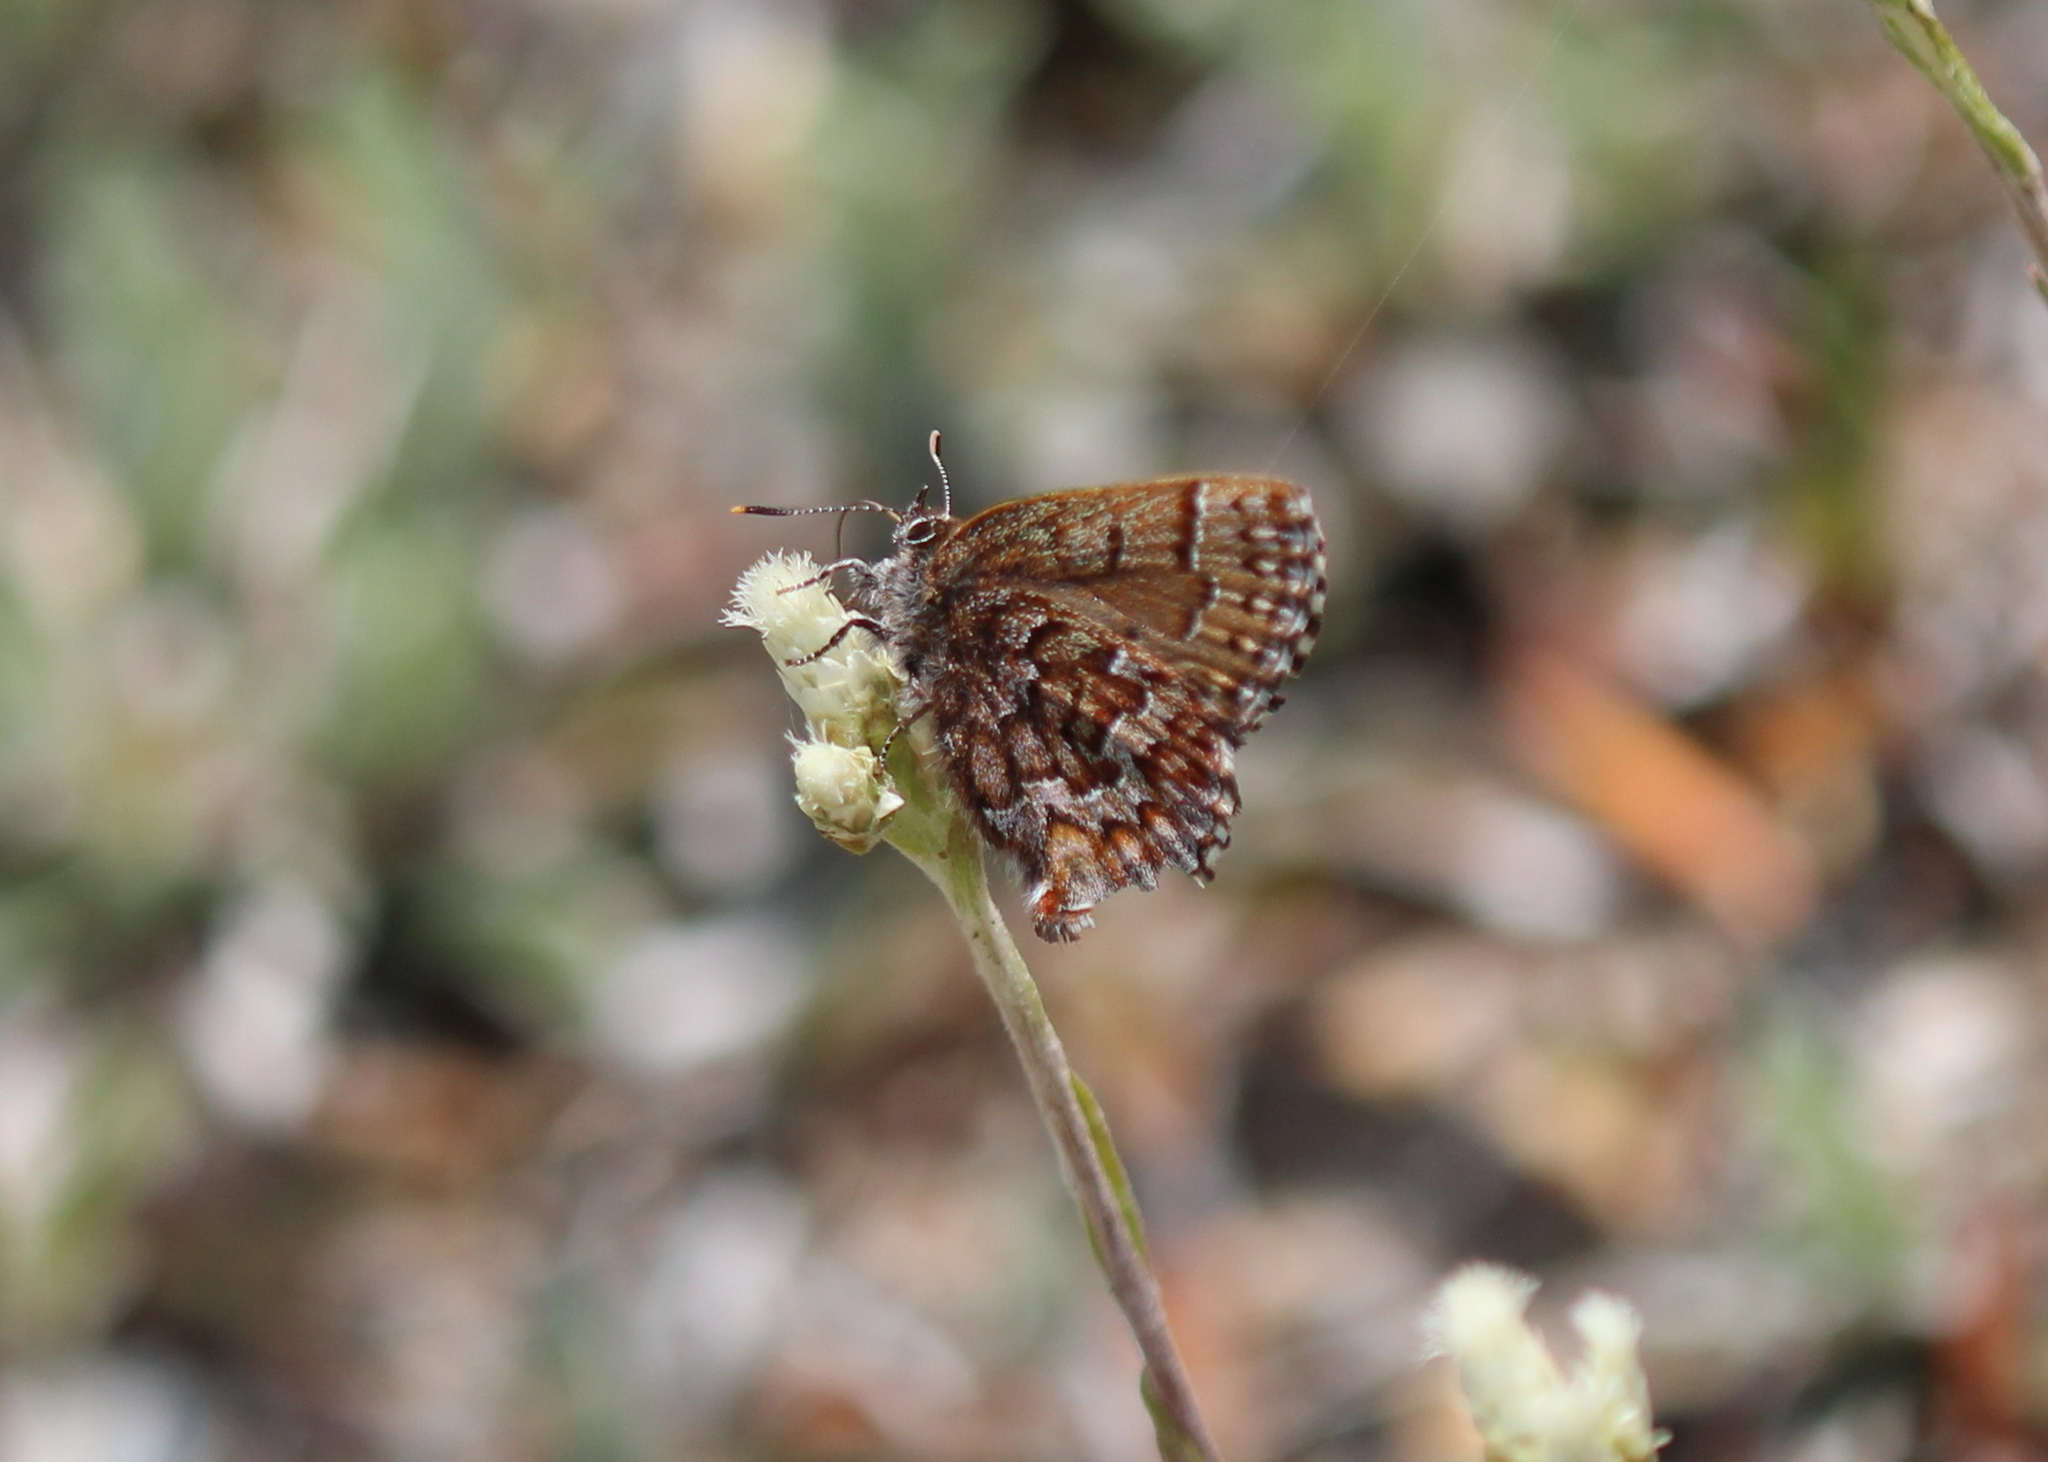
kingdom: Animalia
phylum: Arthropoda
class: Insecta
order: Lepidoptera
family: Lycaenidae
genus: Incisalia
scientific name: Incisalia niphon
